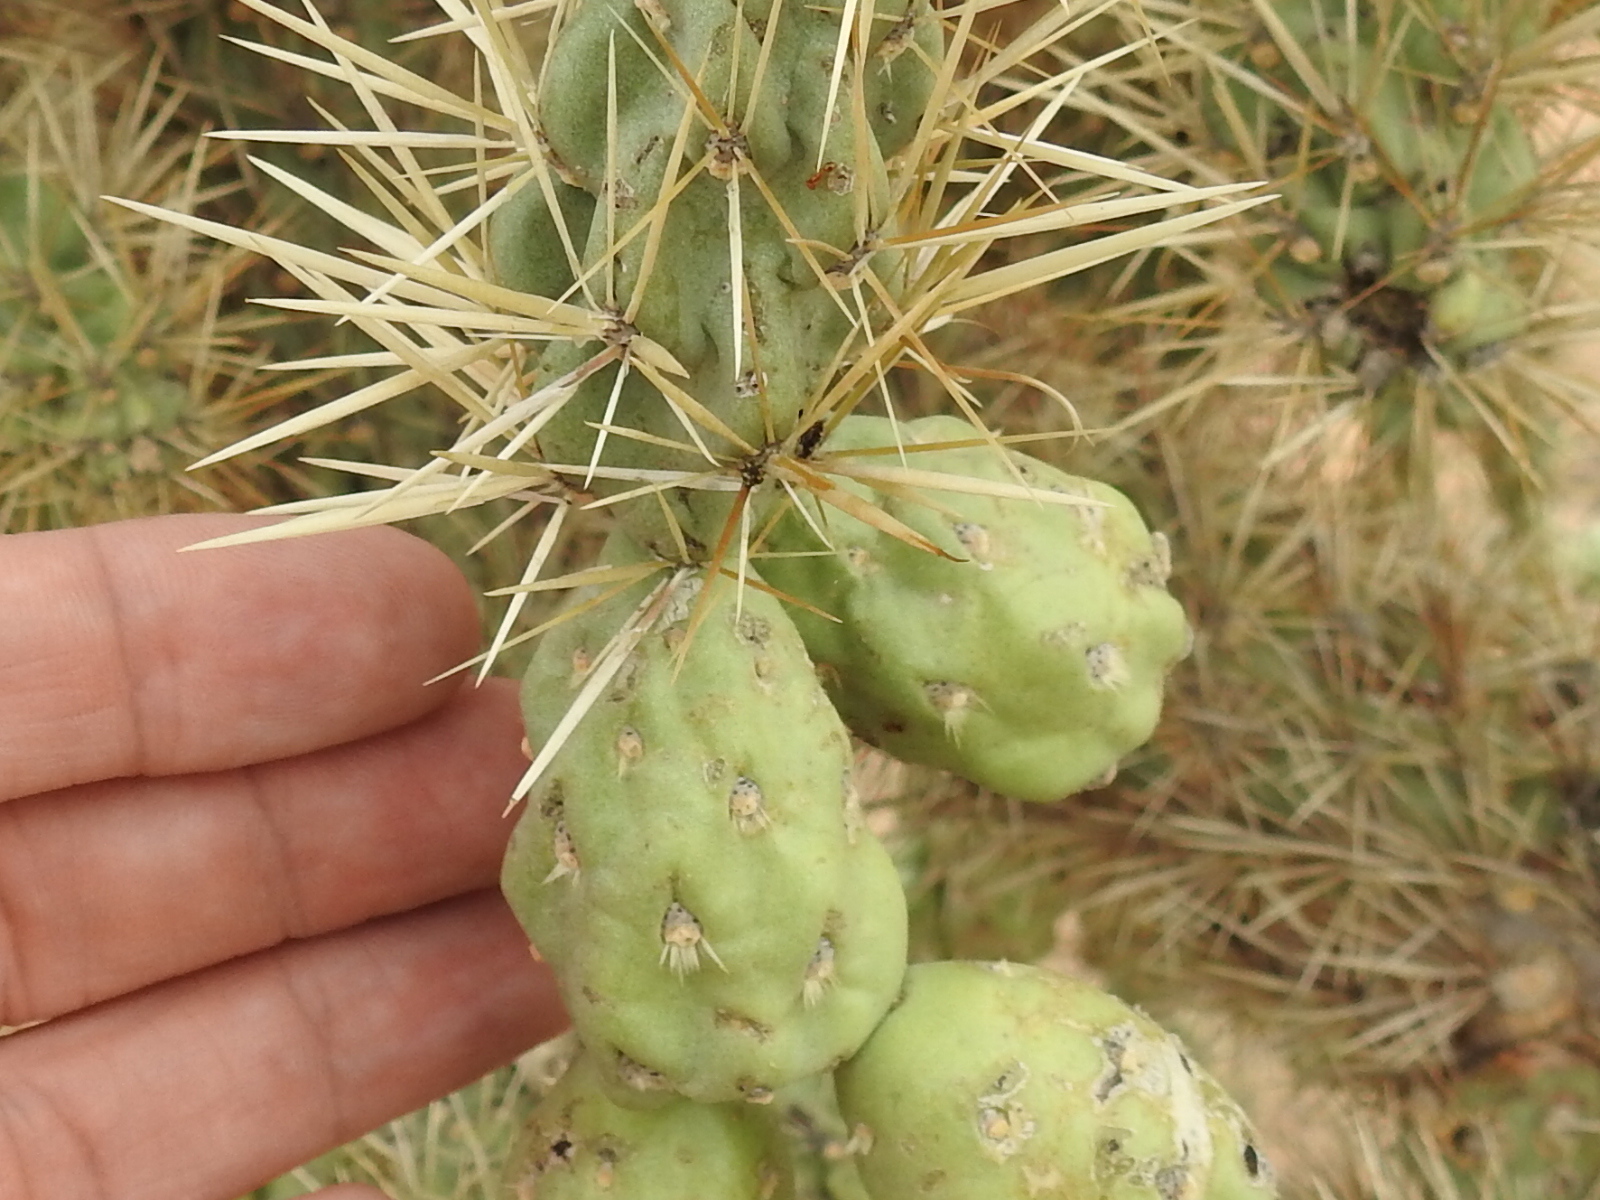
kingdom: Plantae
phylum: Tracheophyta
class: Magnoliopsida
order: Caryophyllales
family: Cactaceae
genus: Cylindropuntia
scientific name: Cylindropuntia fulgida
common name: Jumping cholla
